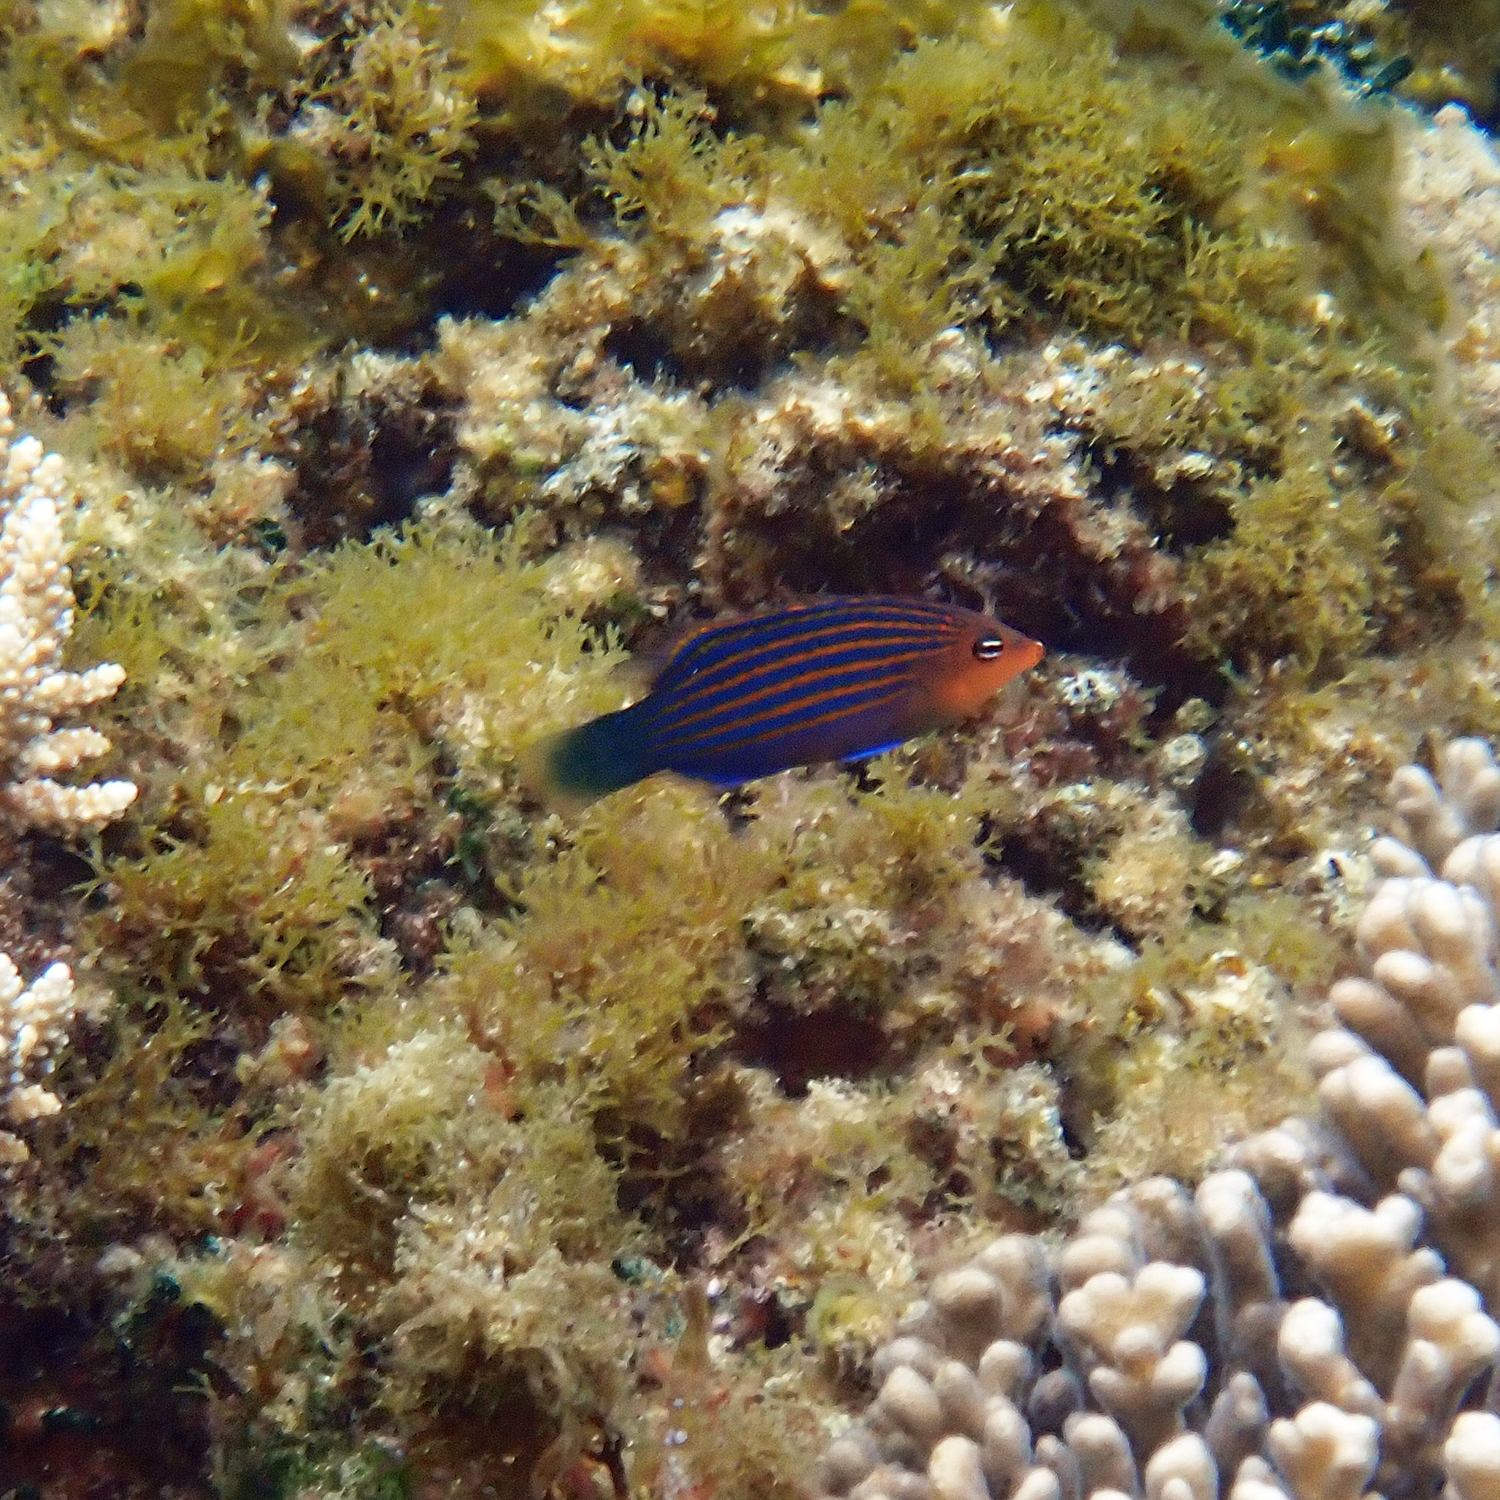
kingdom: Animalia
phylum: Chordata
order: Perciformes
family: Labridae
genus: Pseudocheilinus
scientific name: Pseudocheilinus hexataenia
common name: Sixline wrasse
